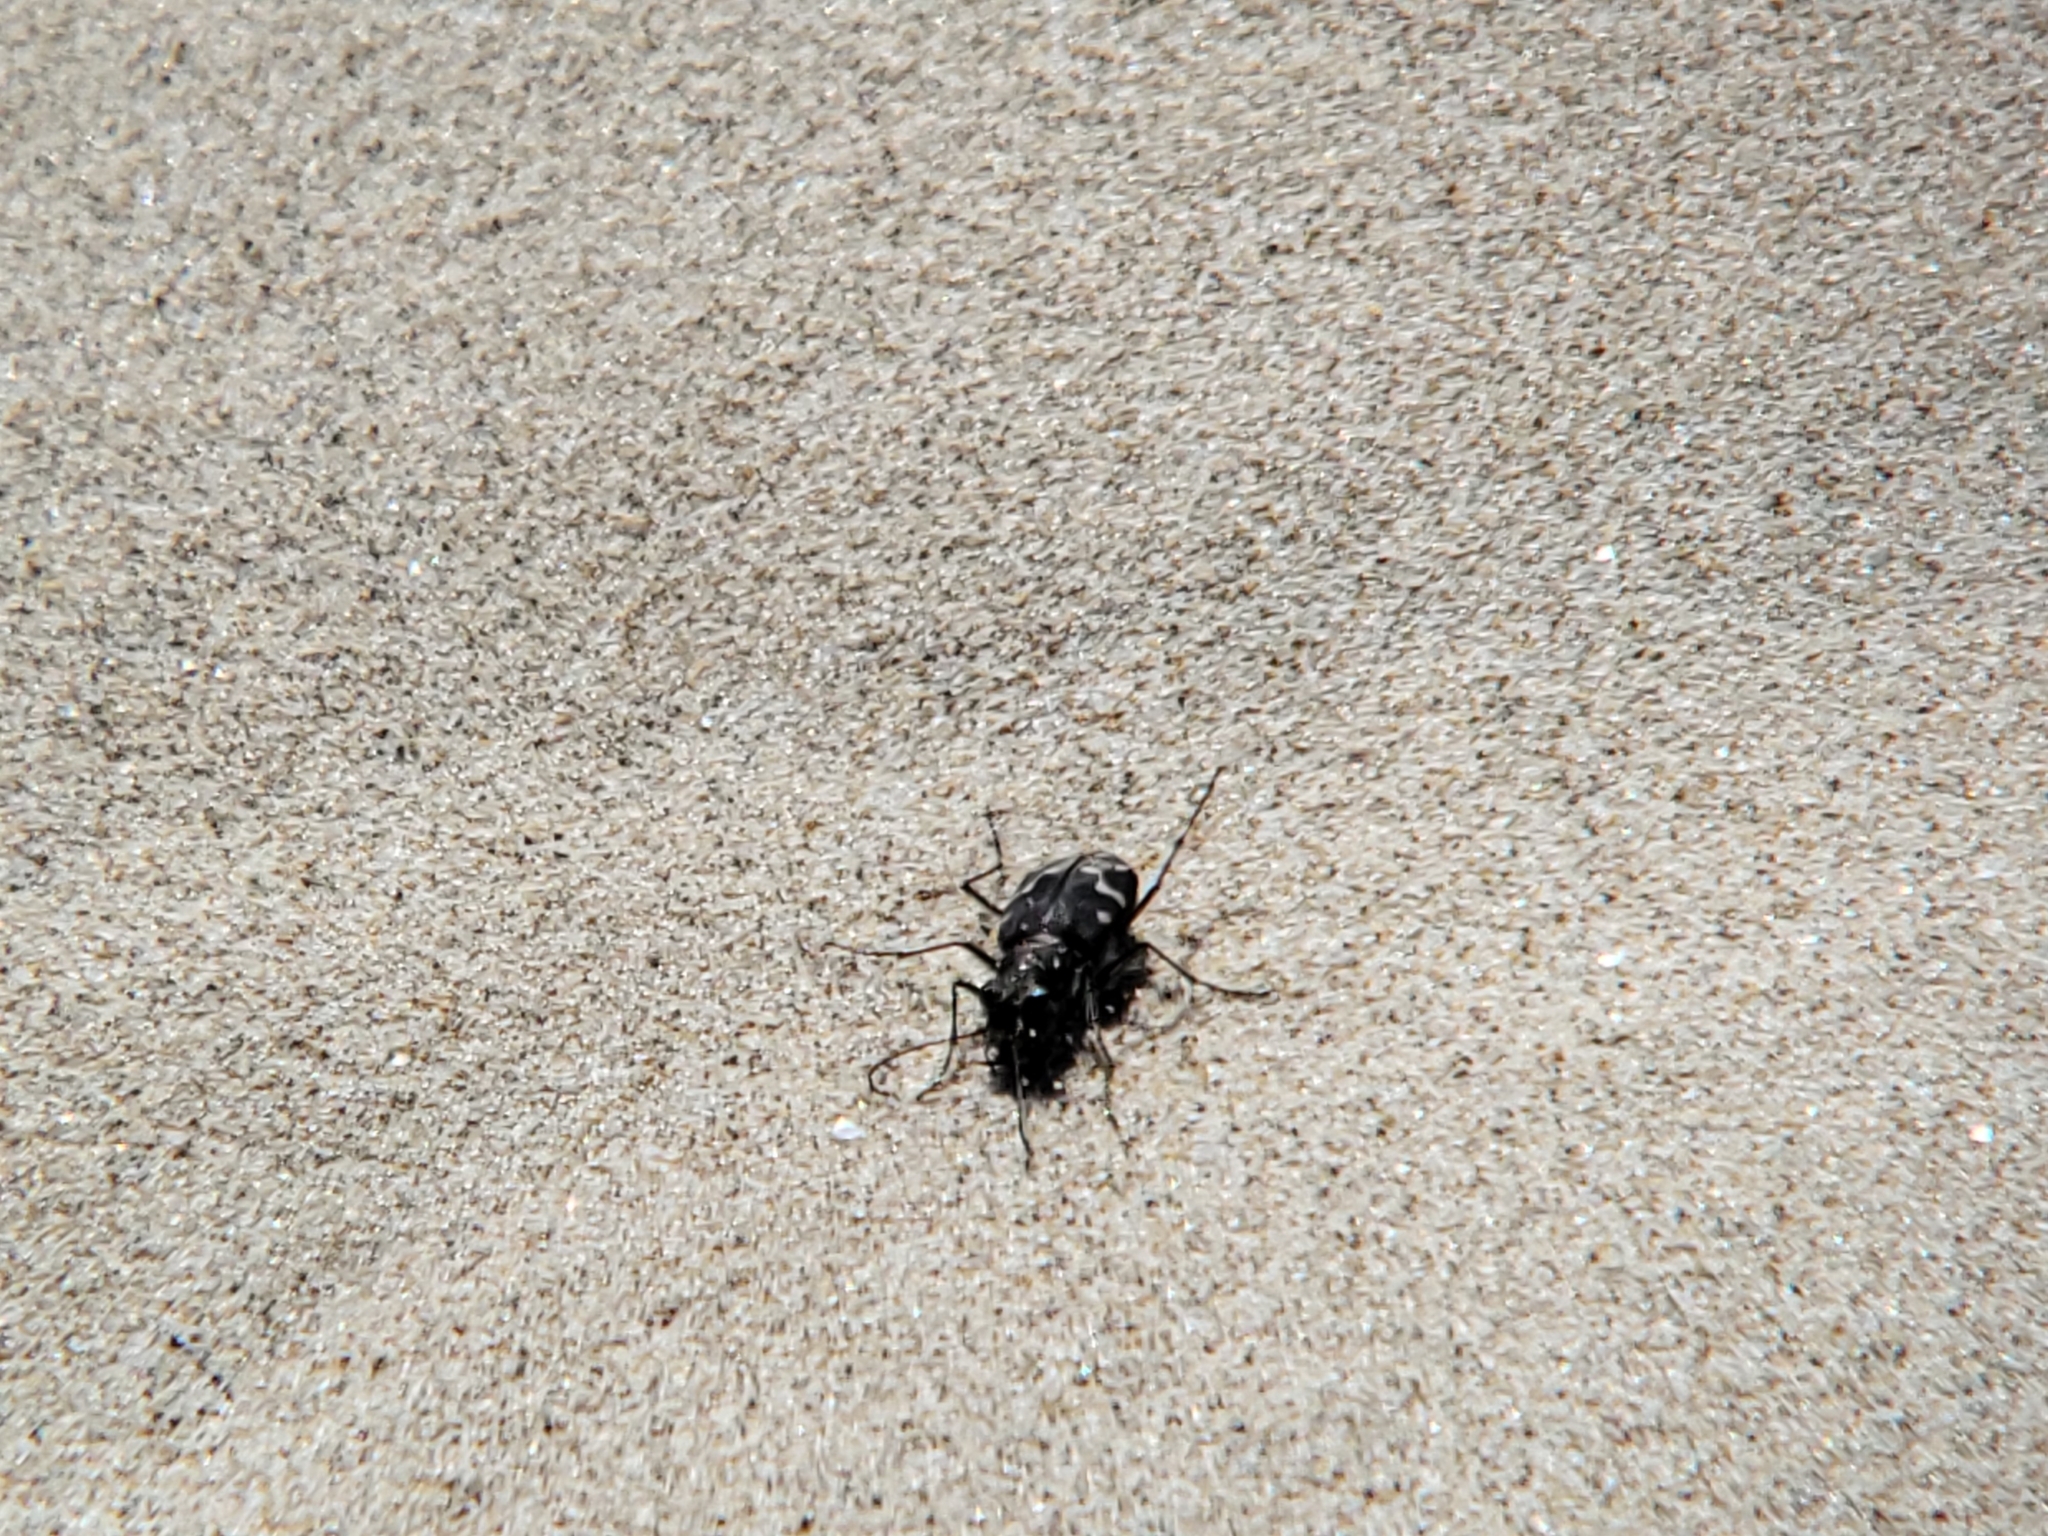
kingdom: Animalia
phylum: Arthropoda
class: Insecta
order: Coleoptera
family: Carabidae
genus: Cicindela
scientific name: Cicindela oregona
